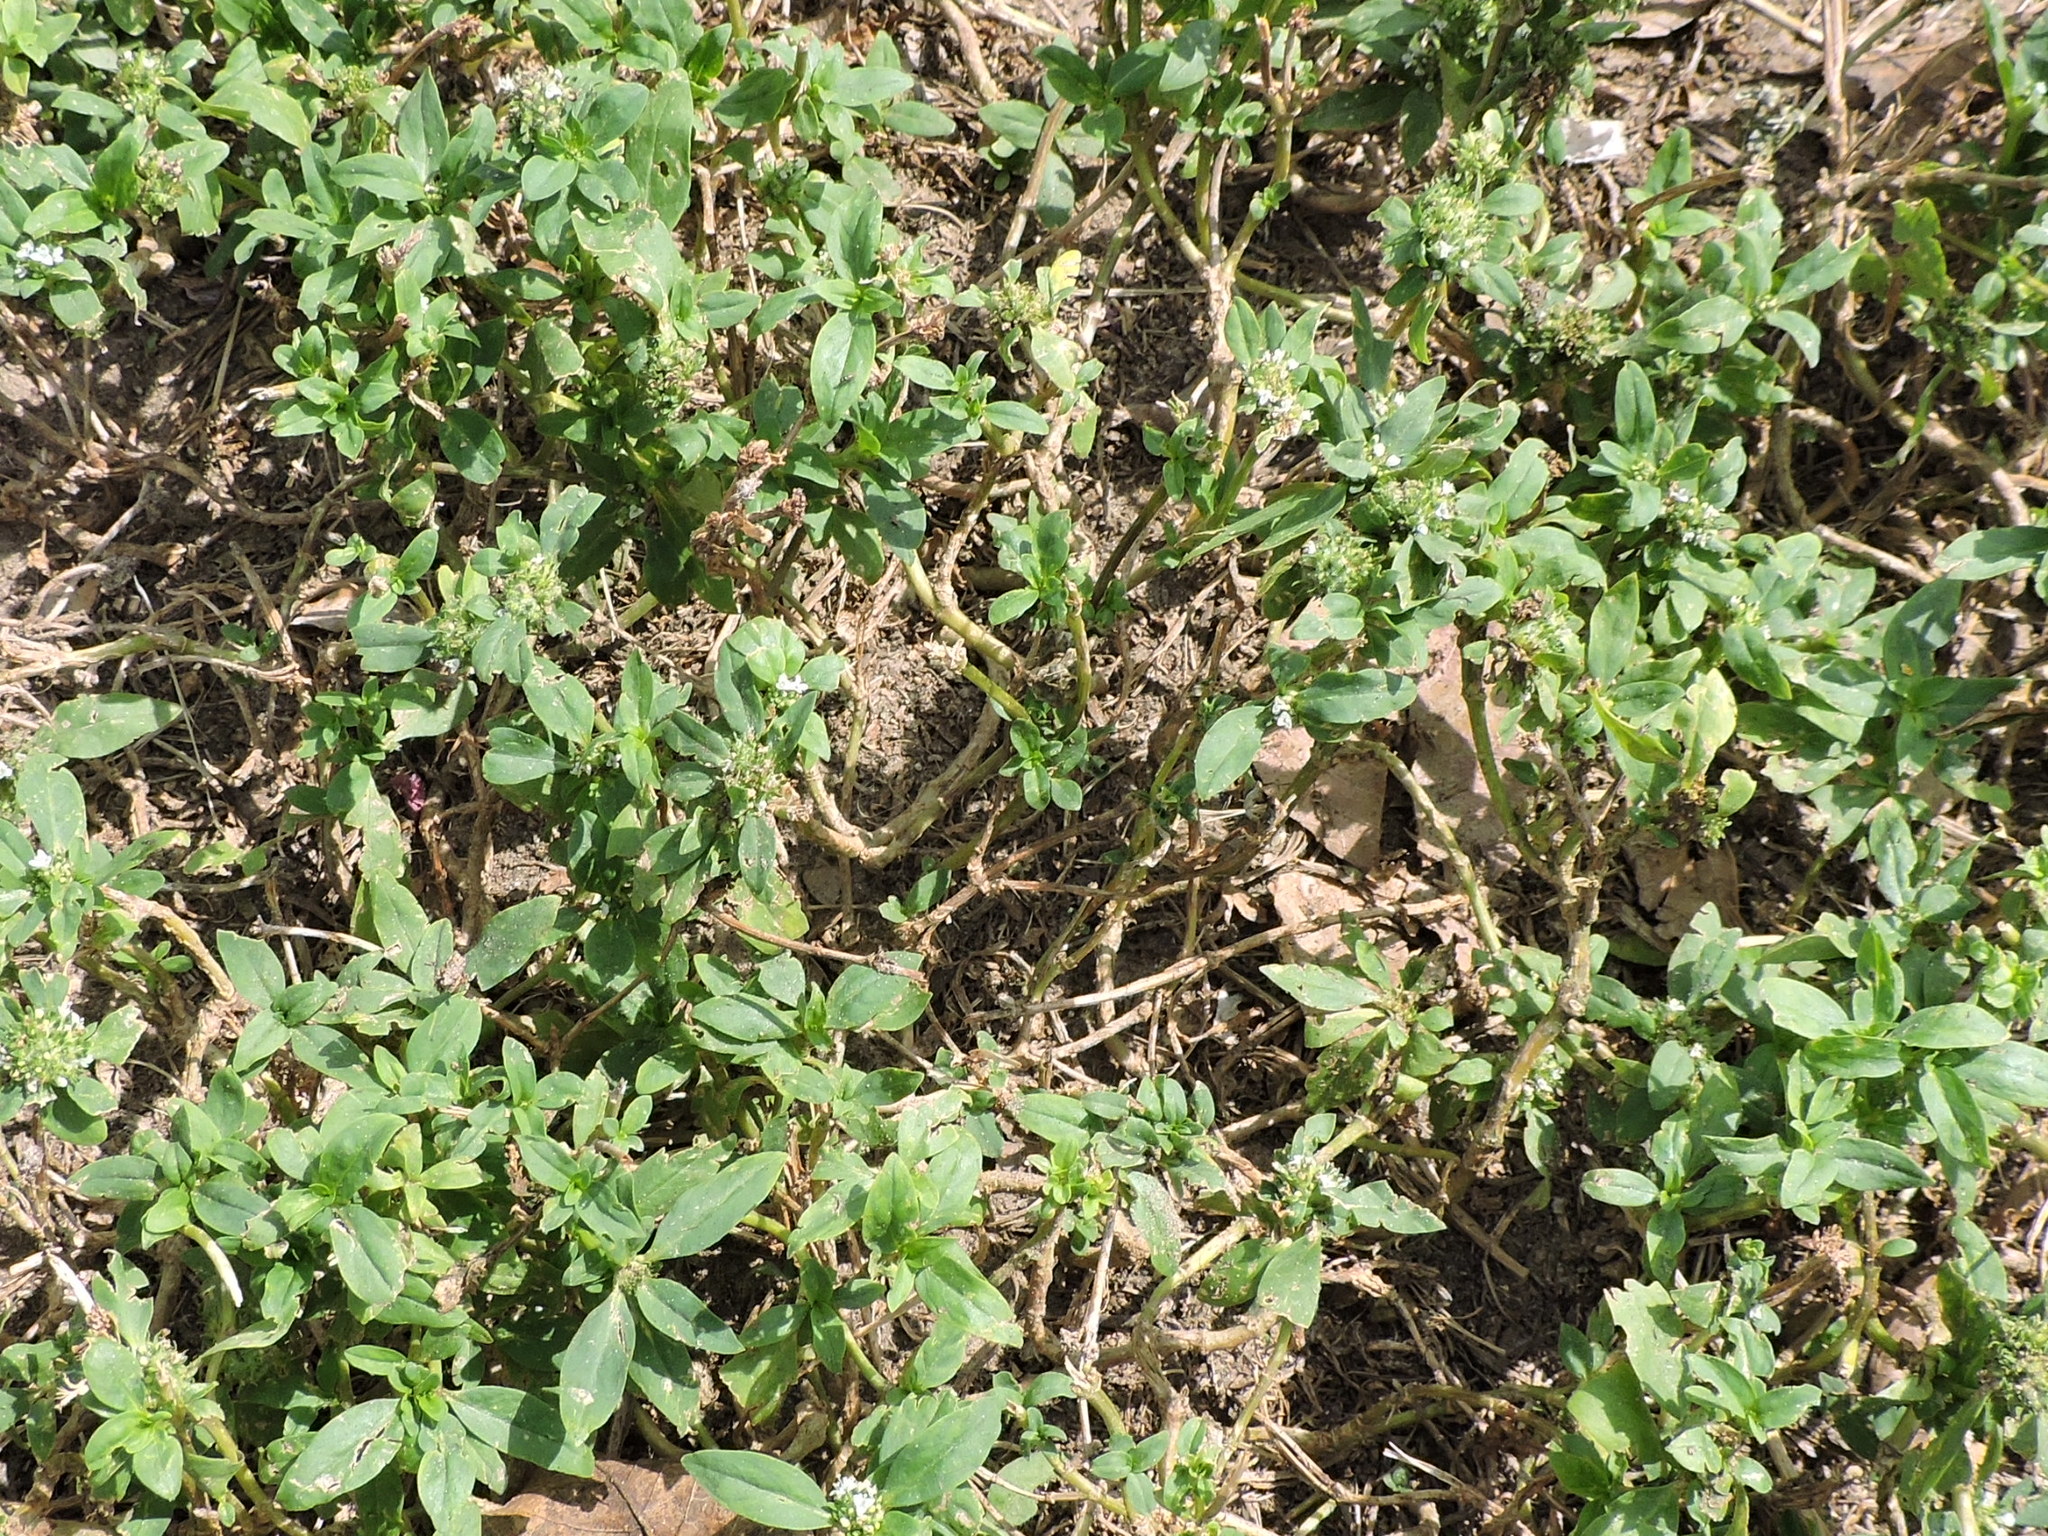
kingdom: Plantae
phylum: Tracheophyta
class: Magnoliopsida
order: Gentianales
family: Rubiaceae
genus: Richardia
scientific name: Richardia scabra
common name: Rough mexican clover
